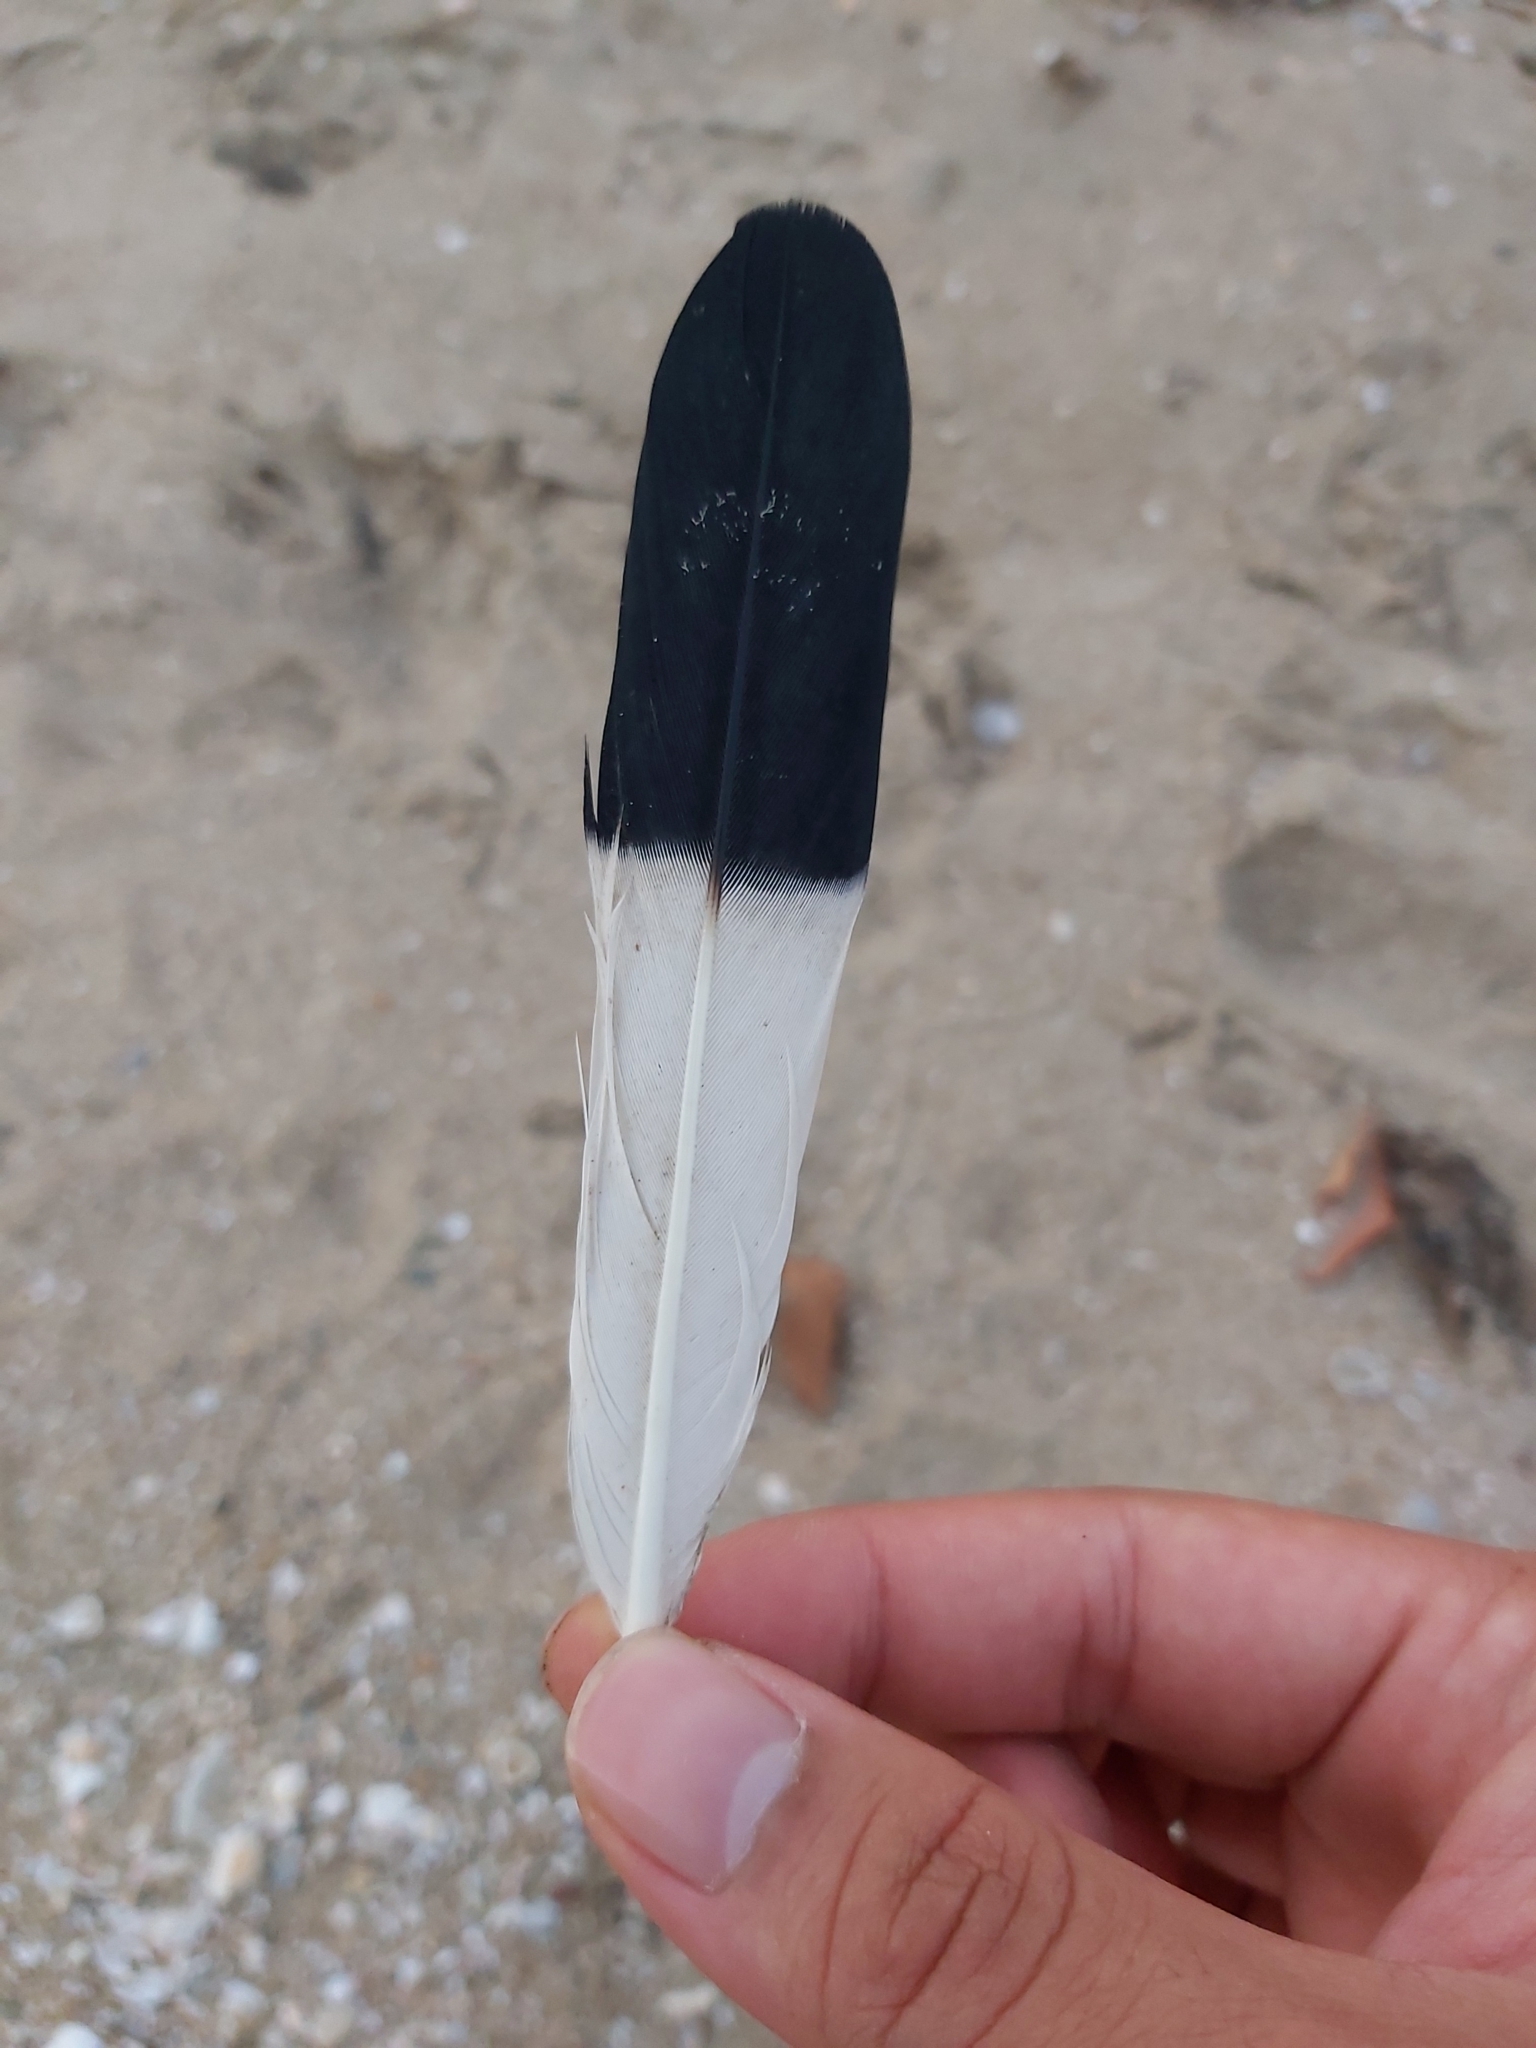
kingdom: Animalia
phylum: Chordata
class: Aves
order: Columbiformes
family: Columbidae
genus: Ducula
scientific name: Ducula spilorrhoa
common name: Torresian imperial pigeon
